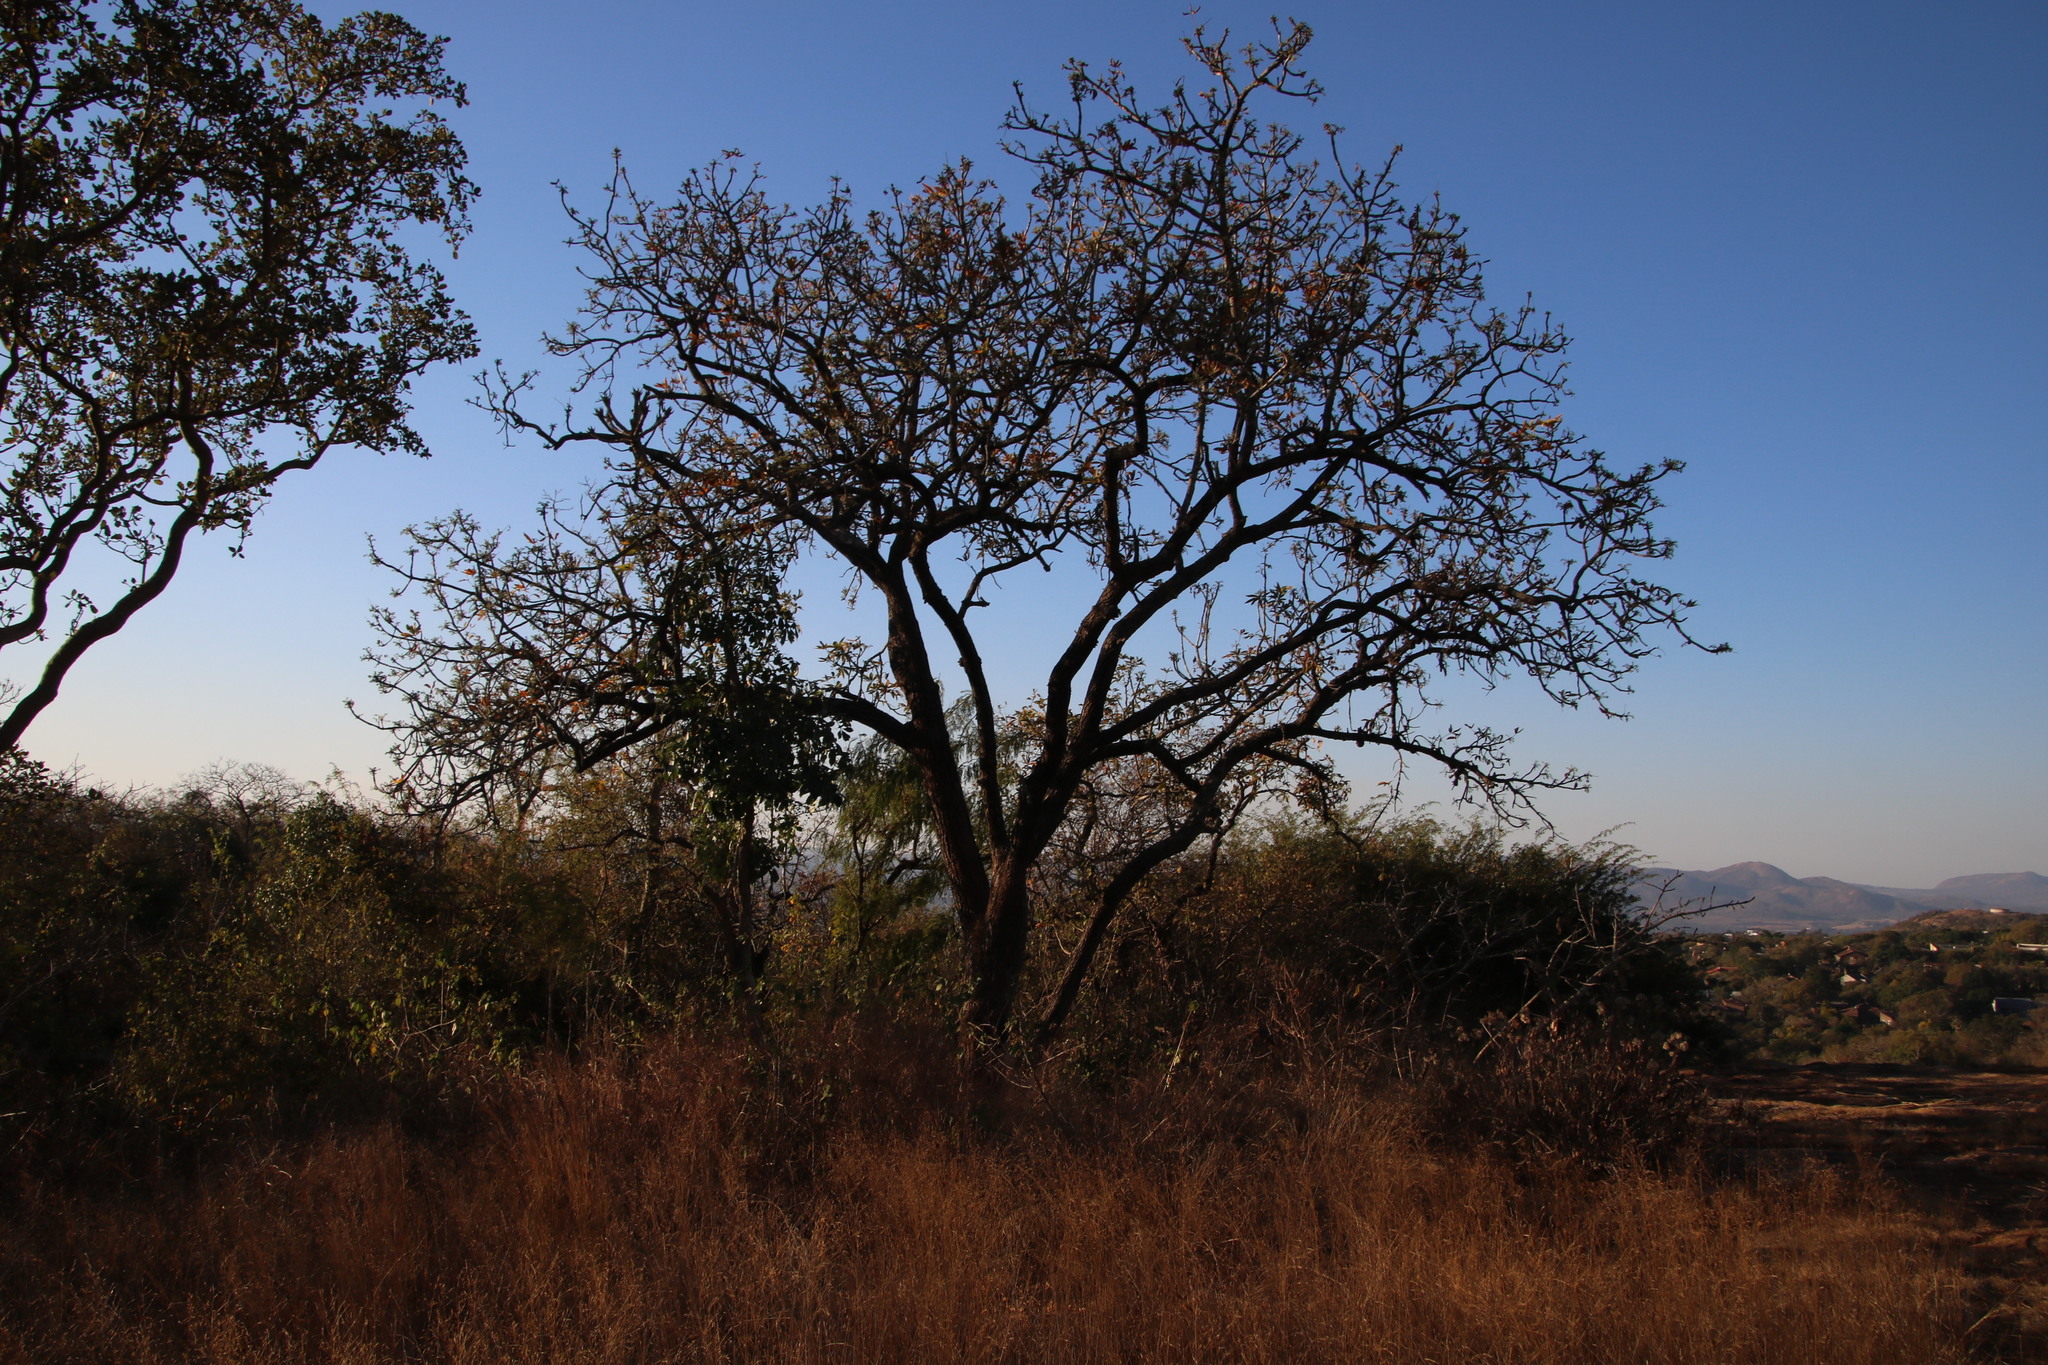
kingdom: Plantae
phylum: Tracheophyta
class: Magnoliopsida
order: Malvales
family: Malvaceae
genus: Sterculia
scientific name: Sterculia murex
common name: Lowveld star-chestnut
